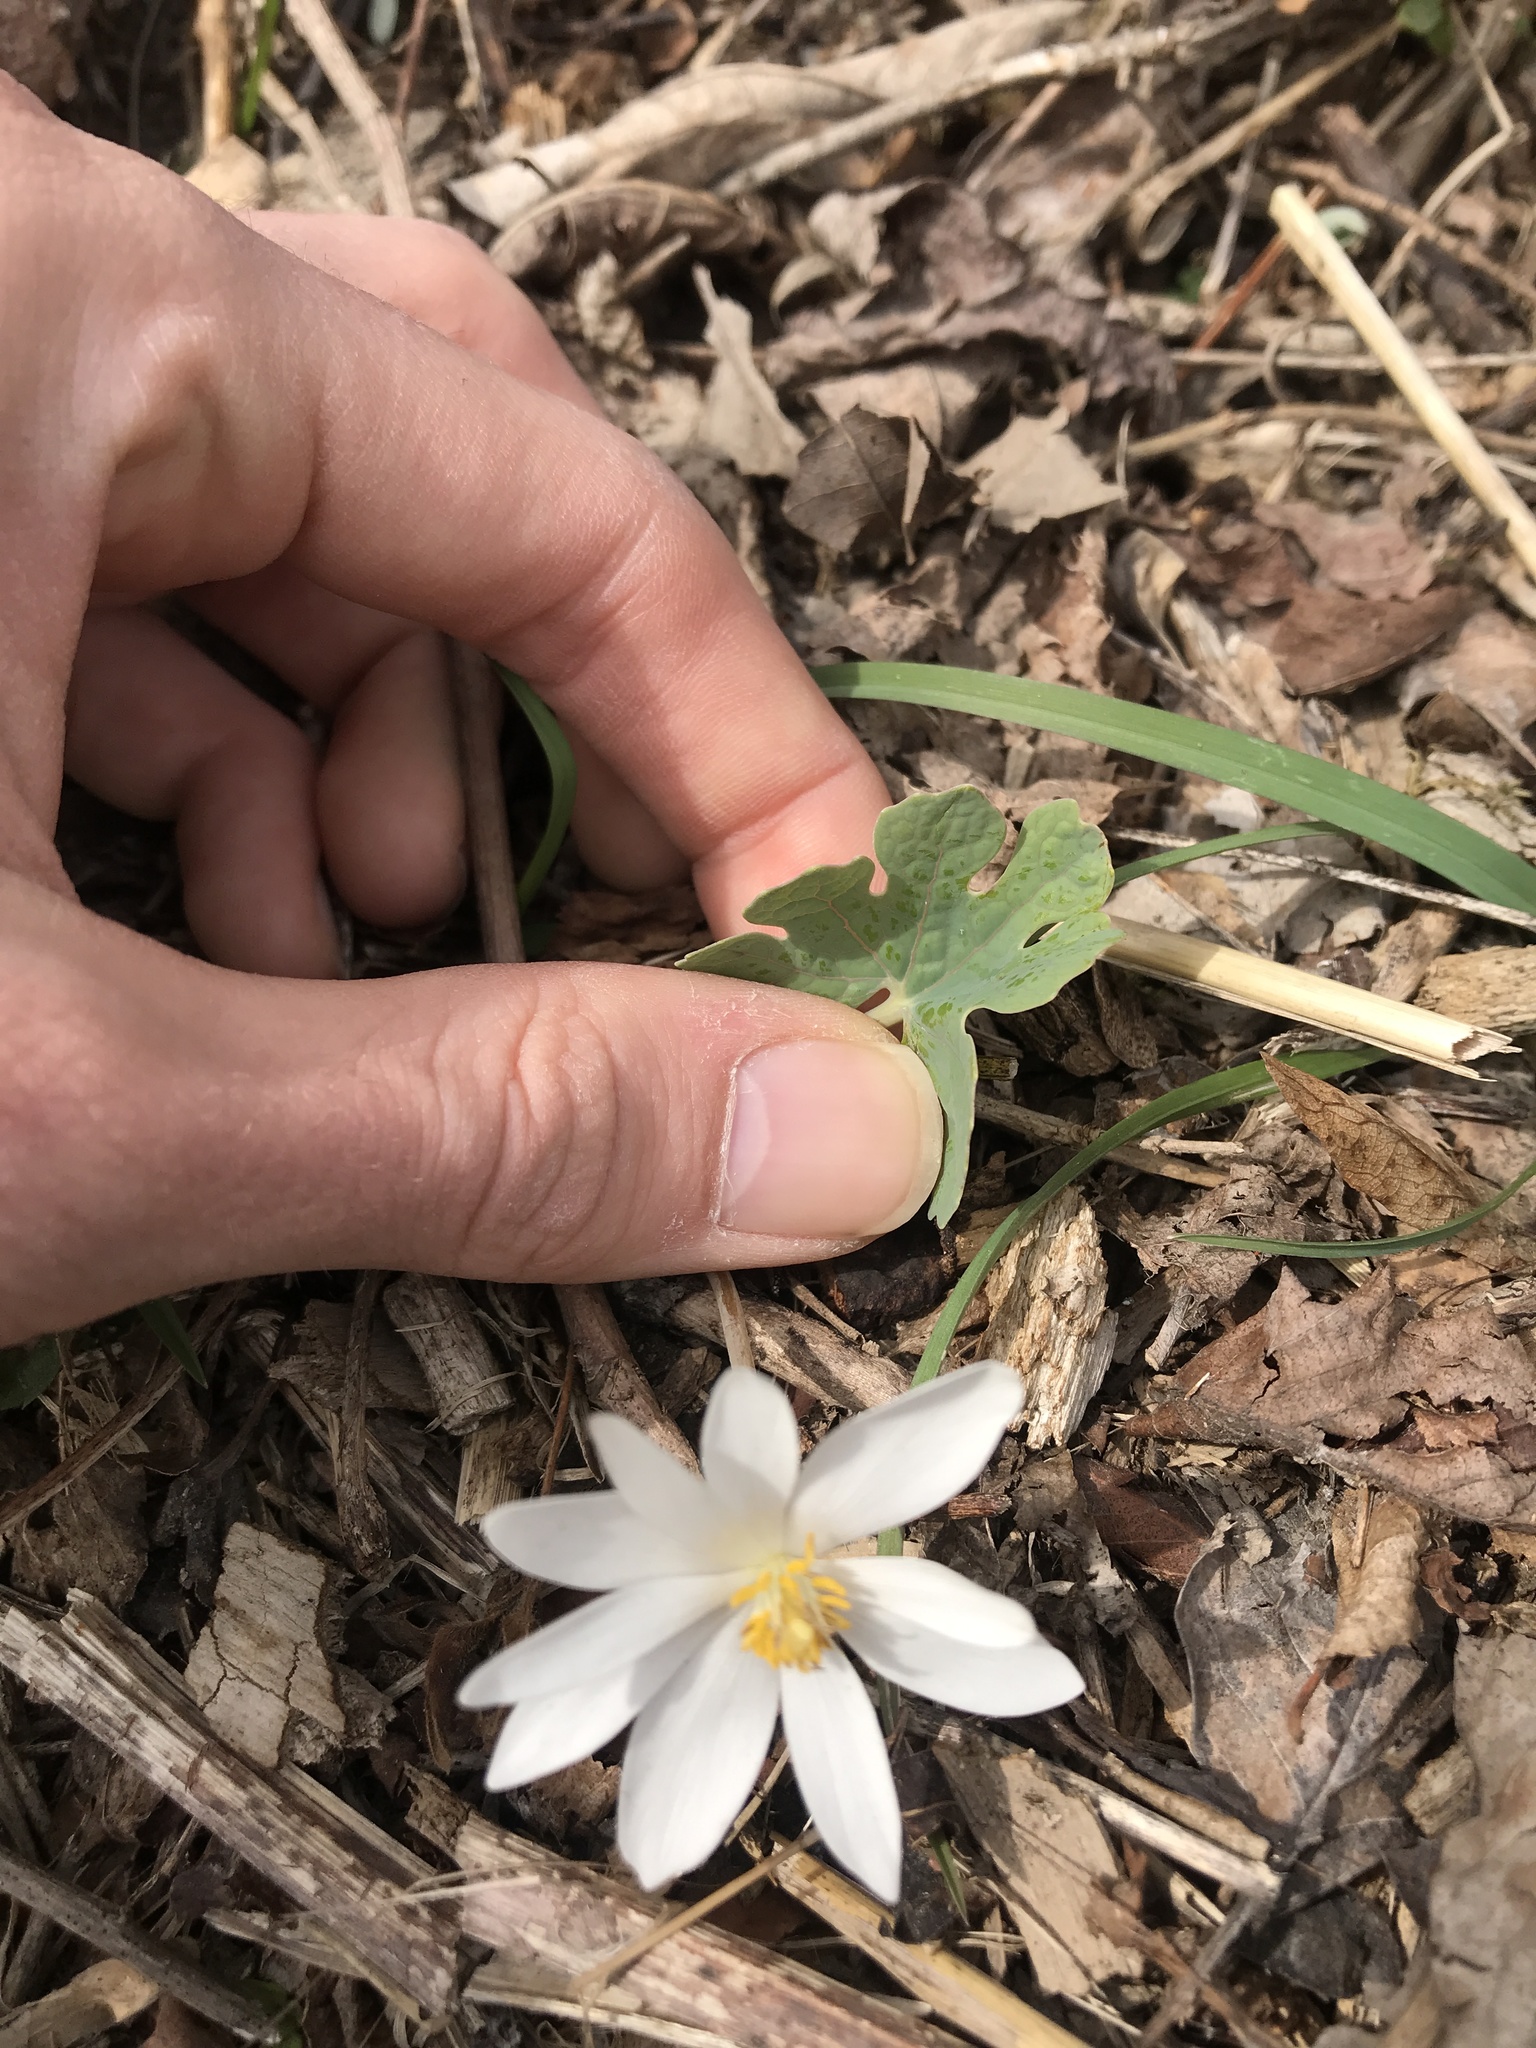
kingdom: Plantae
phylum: Tracheophyta
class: Magnoliopsida
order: Ranunculales
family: Papaveraceae
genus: Sanguinaria
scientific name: Sanguinaria canadensis
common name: Bloodroot
